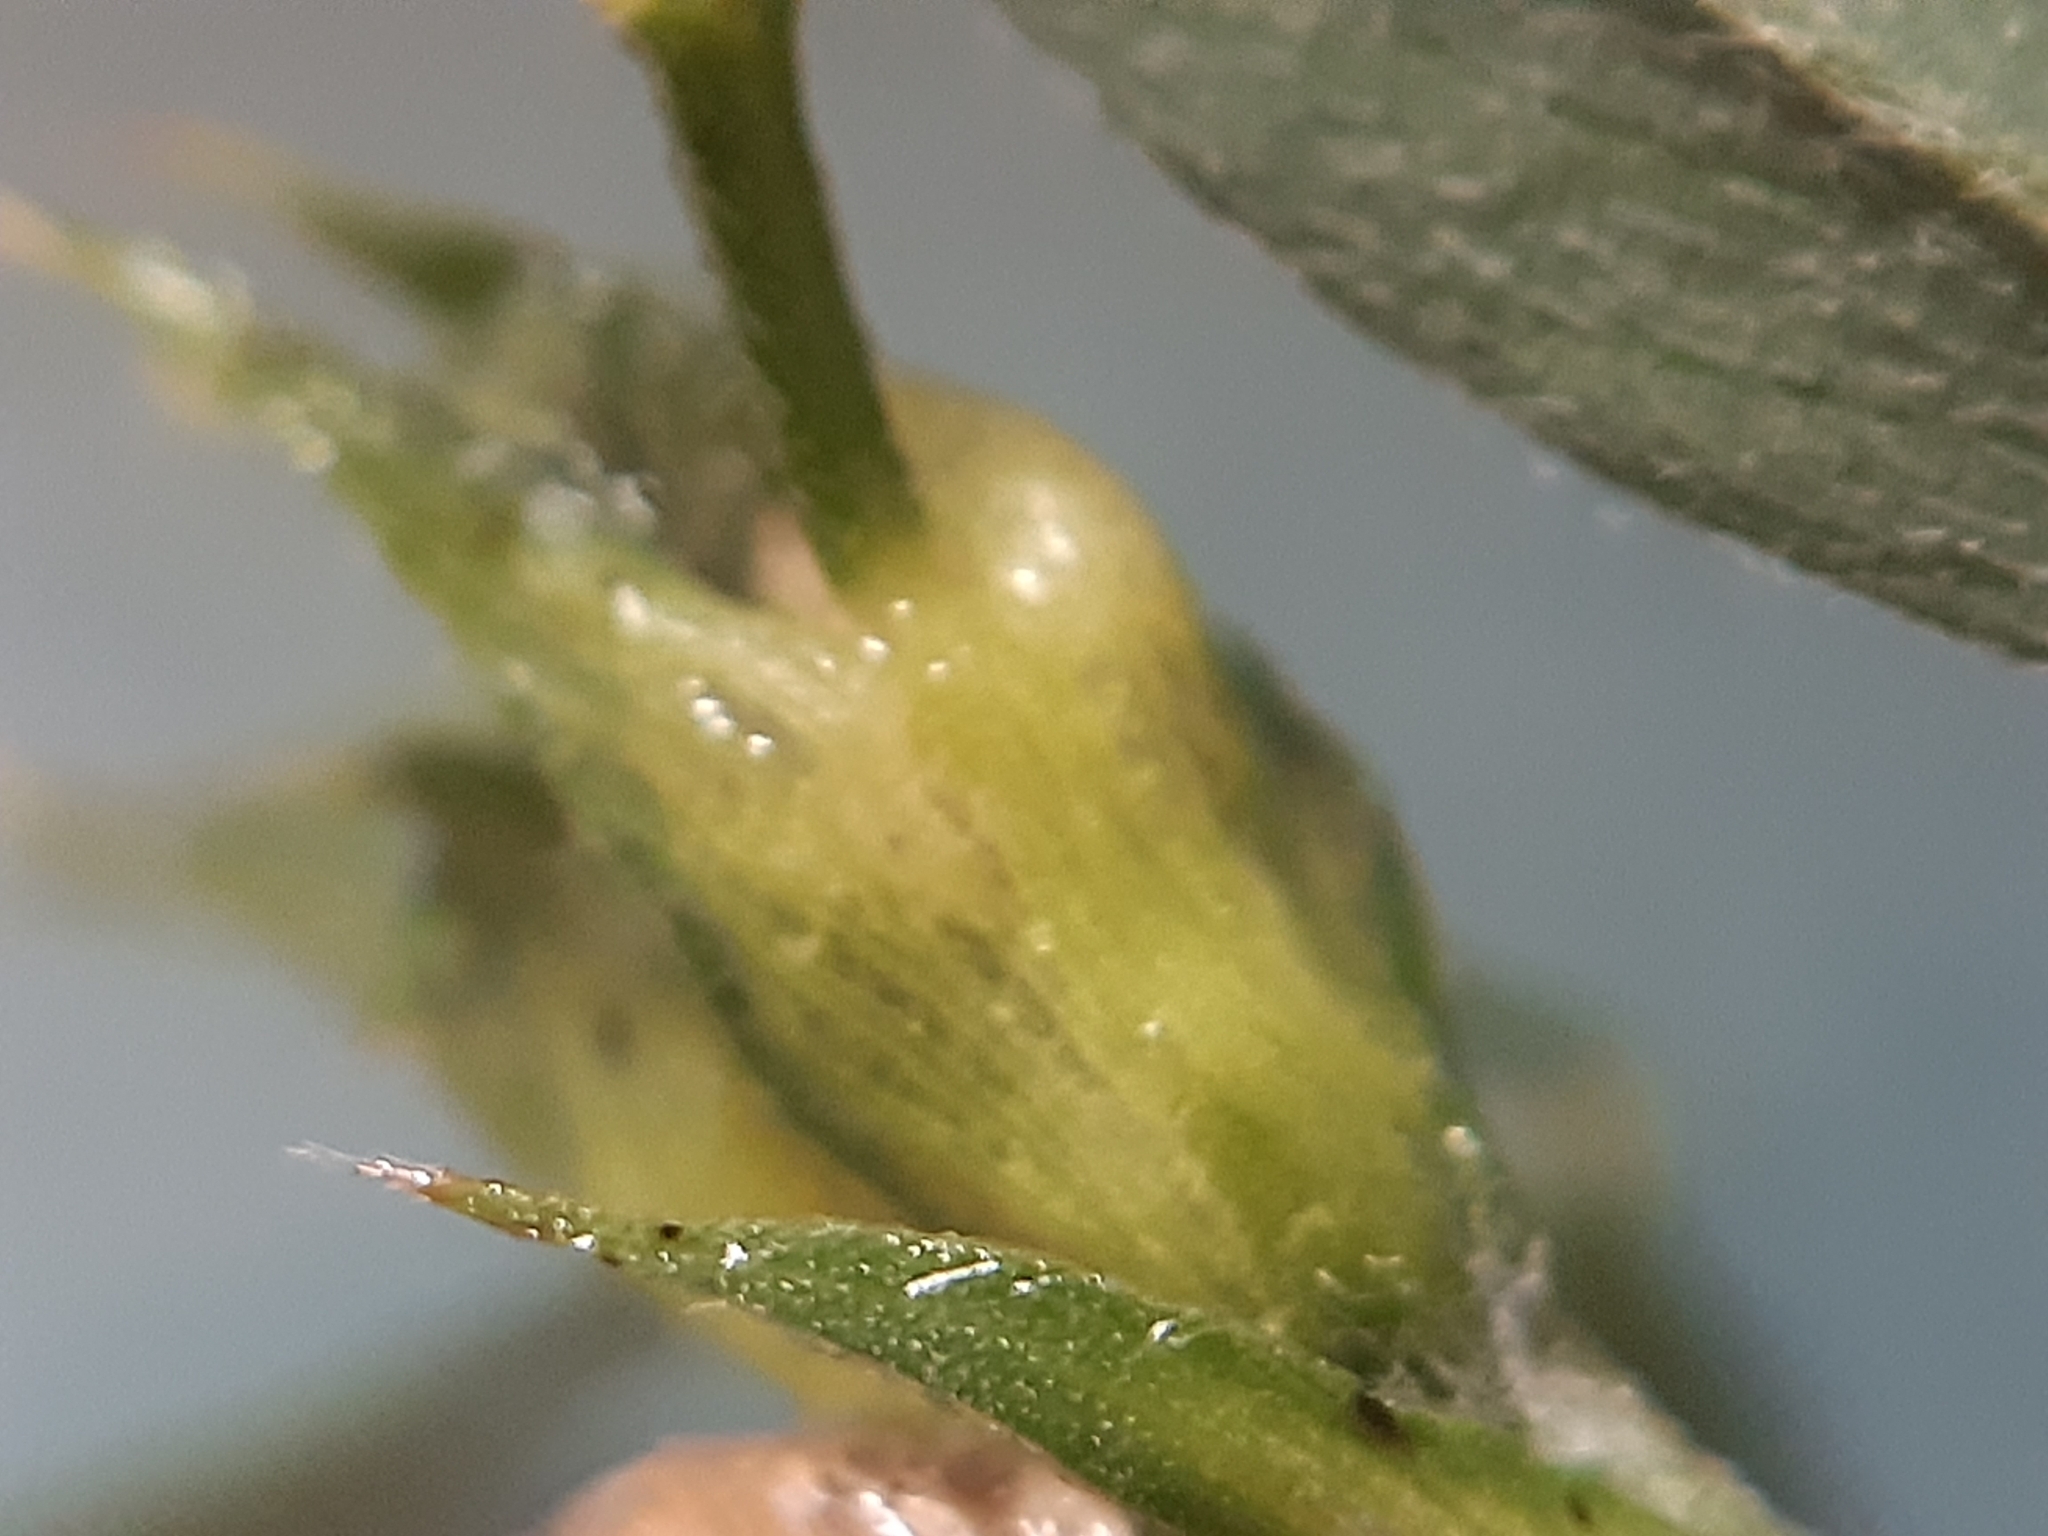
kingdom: Animalia
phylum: Arthropoda
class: Insecta
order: Diptera
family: Cecidomyiidae
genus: Dasineura
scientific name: Dasineura medicaginis
